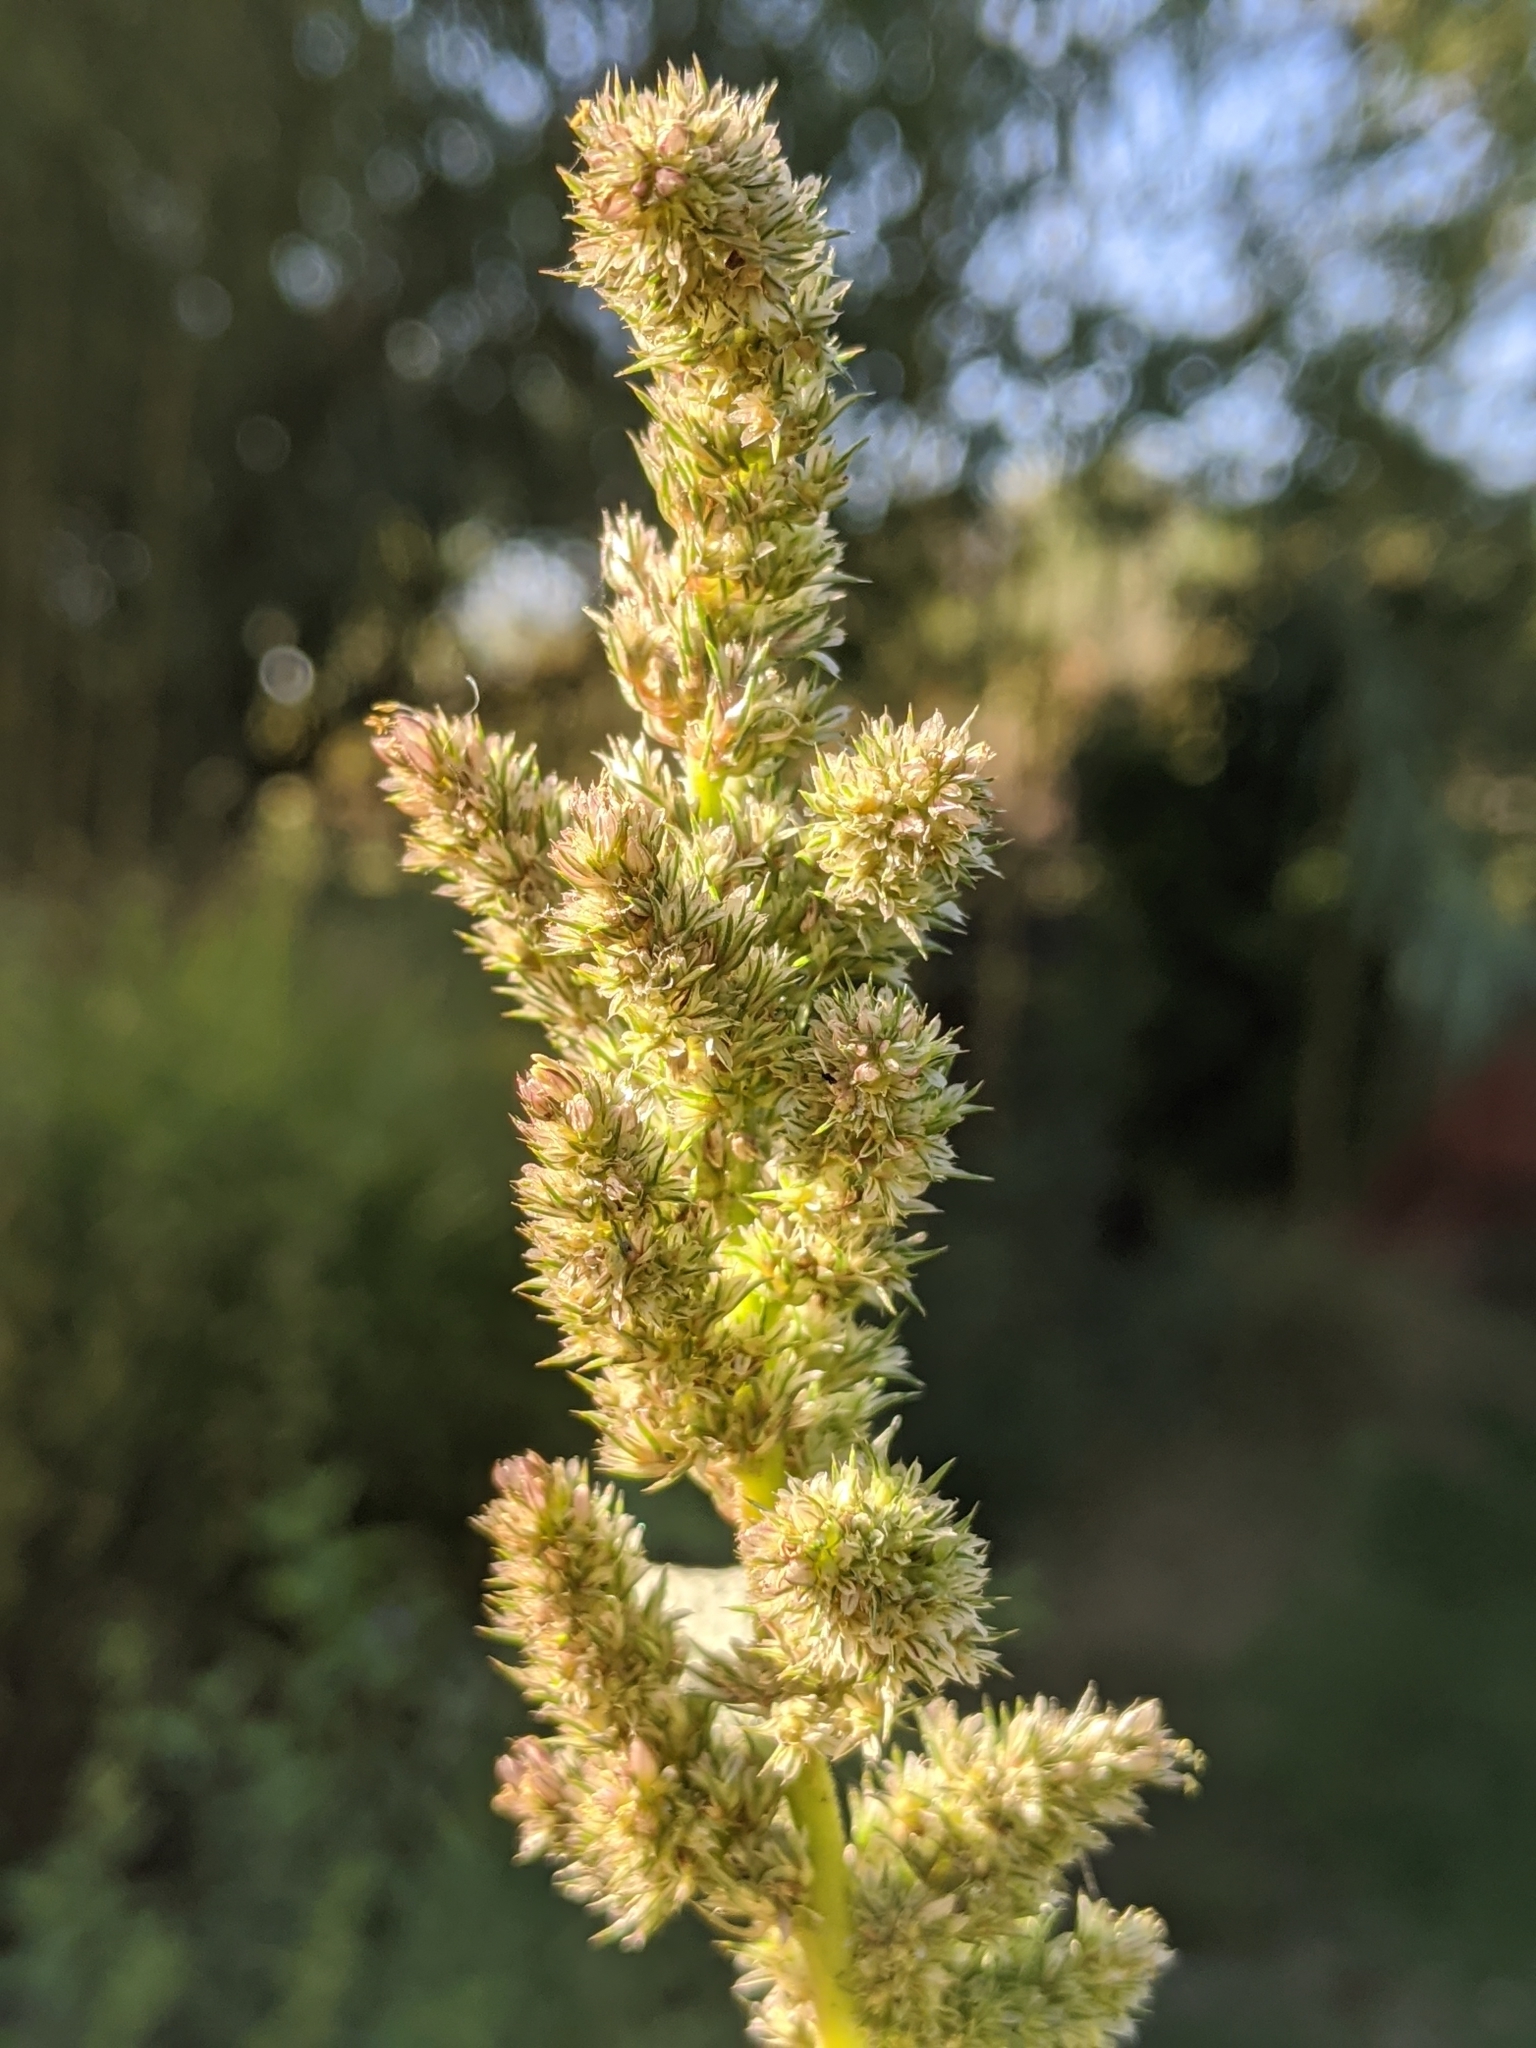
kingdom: Plantae
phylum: Tracheophyta
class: Magnoliopsida
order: Caryophyllales
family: Amaranthaceae
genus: Amaranthus
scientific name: Amaranthus retroflexus
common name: Redroot amaranth
